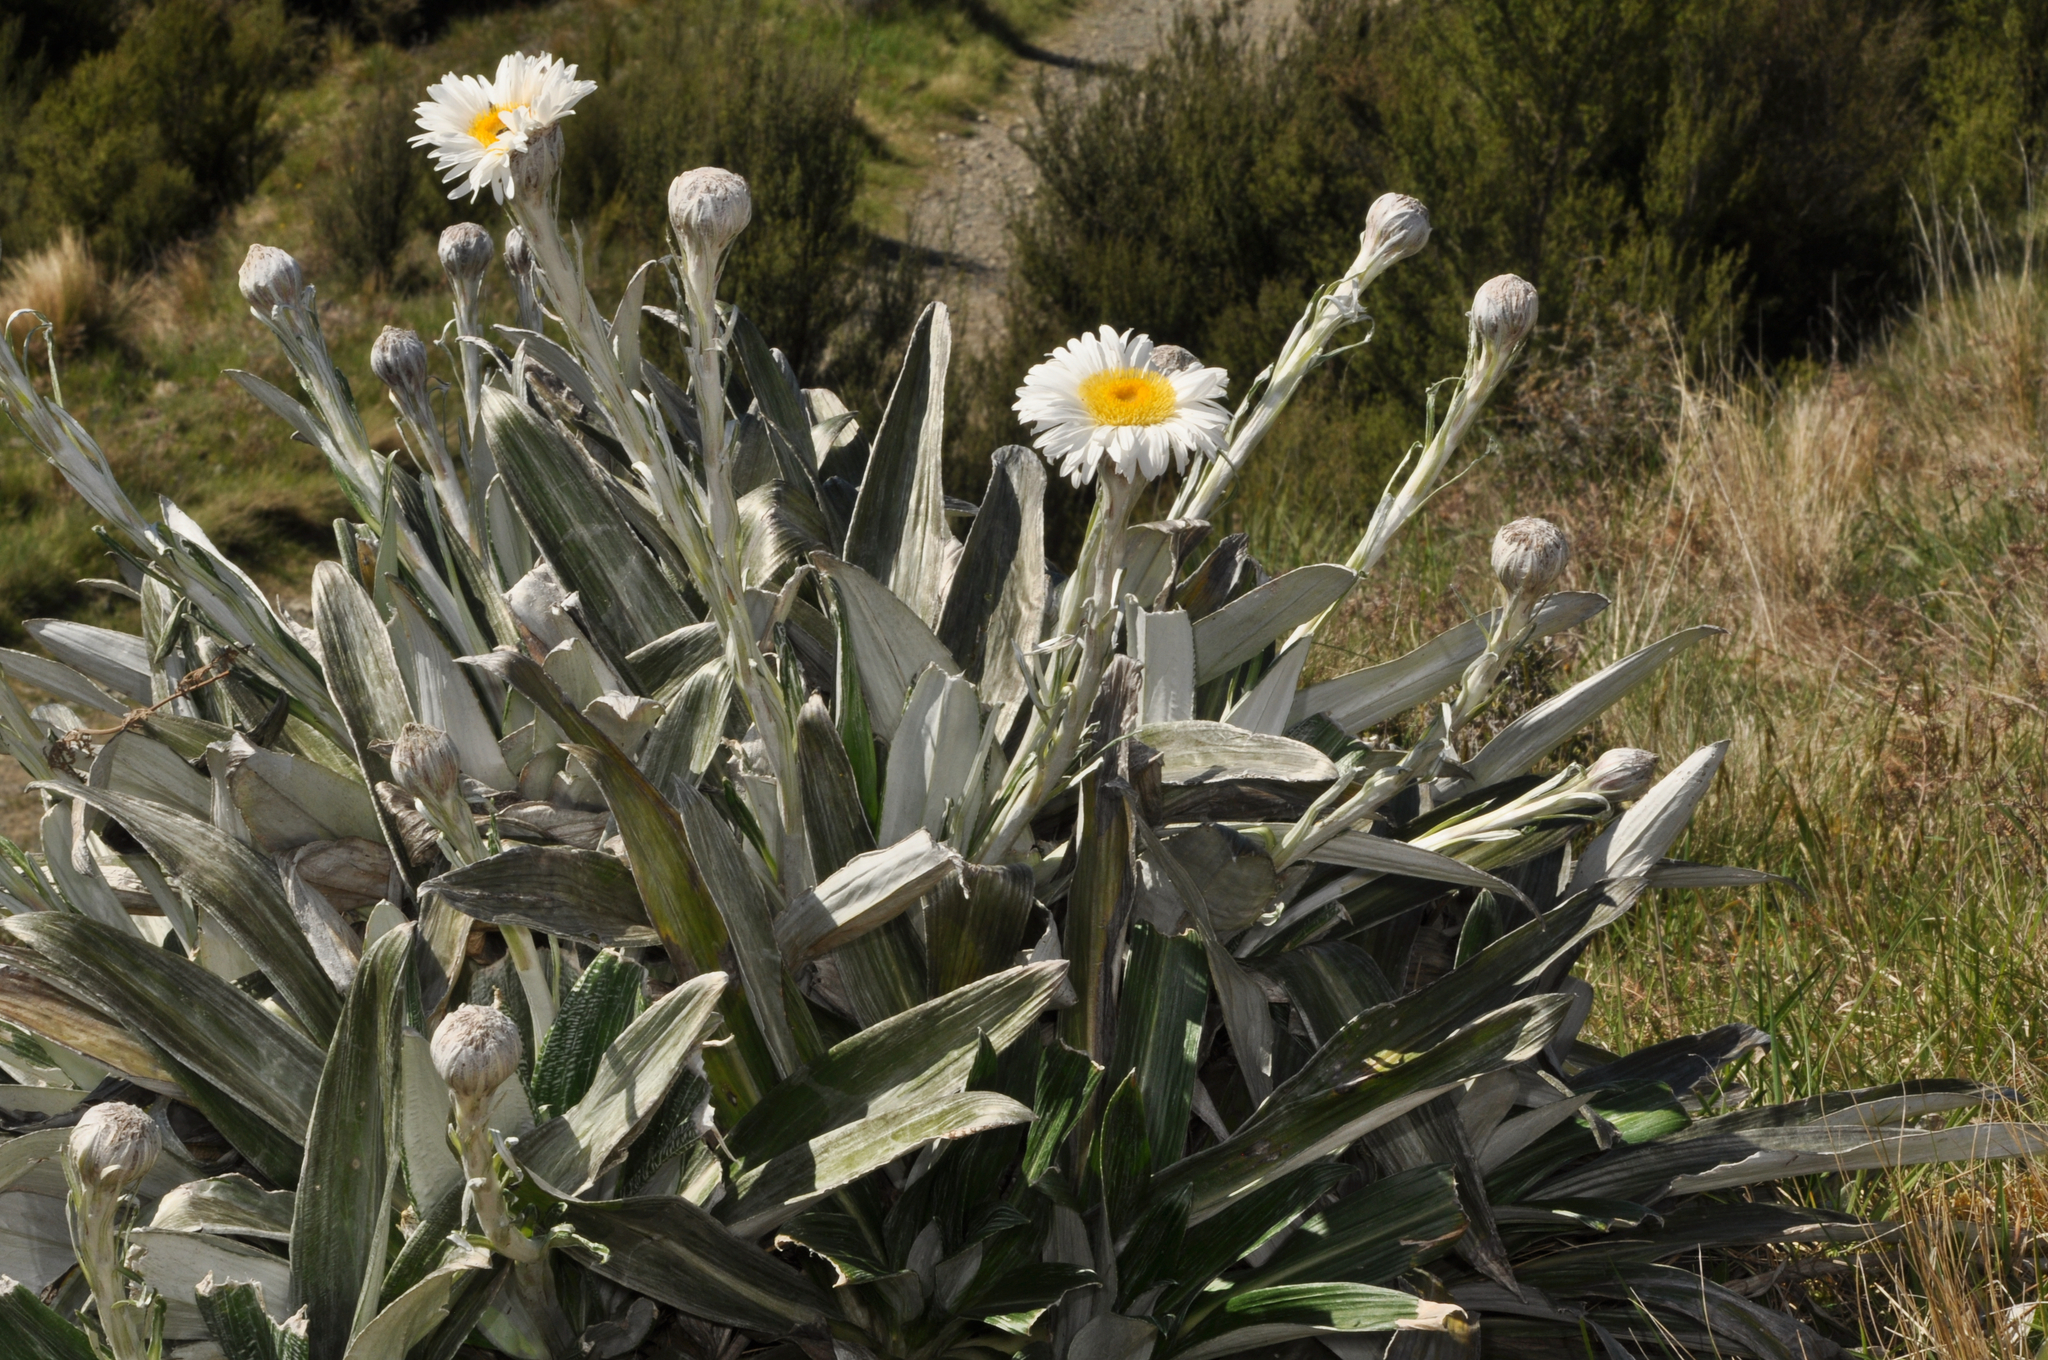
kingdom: Plantae
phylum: Tracheophyta
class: Magnoliopsida
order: Asterales
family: Asteraceae
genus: Celmisia
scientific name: Celmisia monroi
